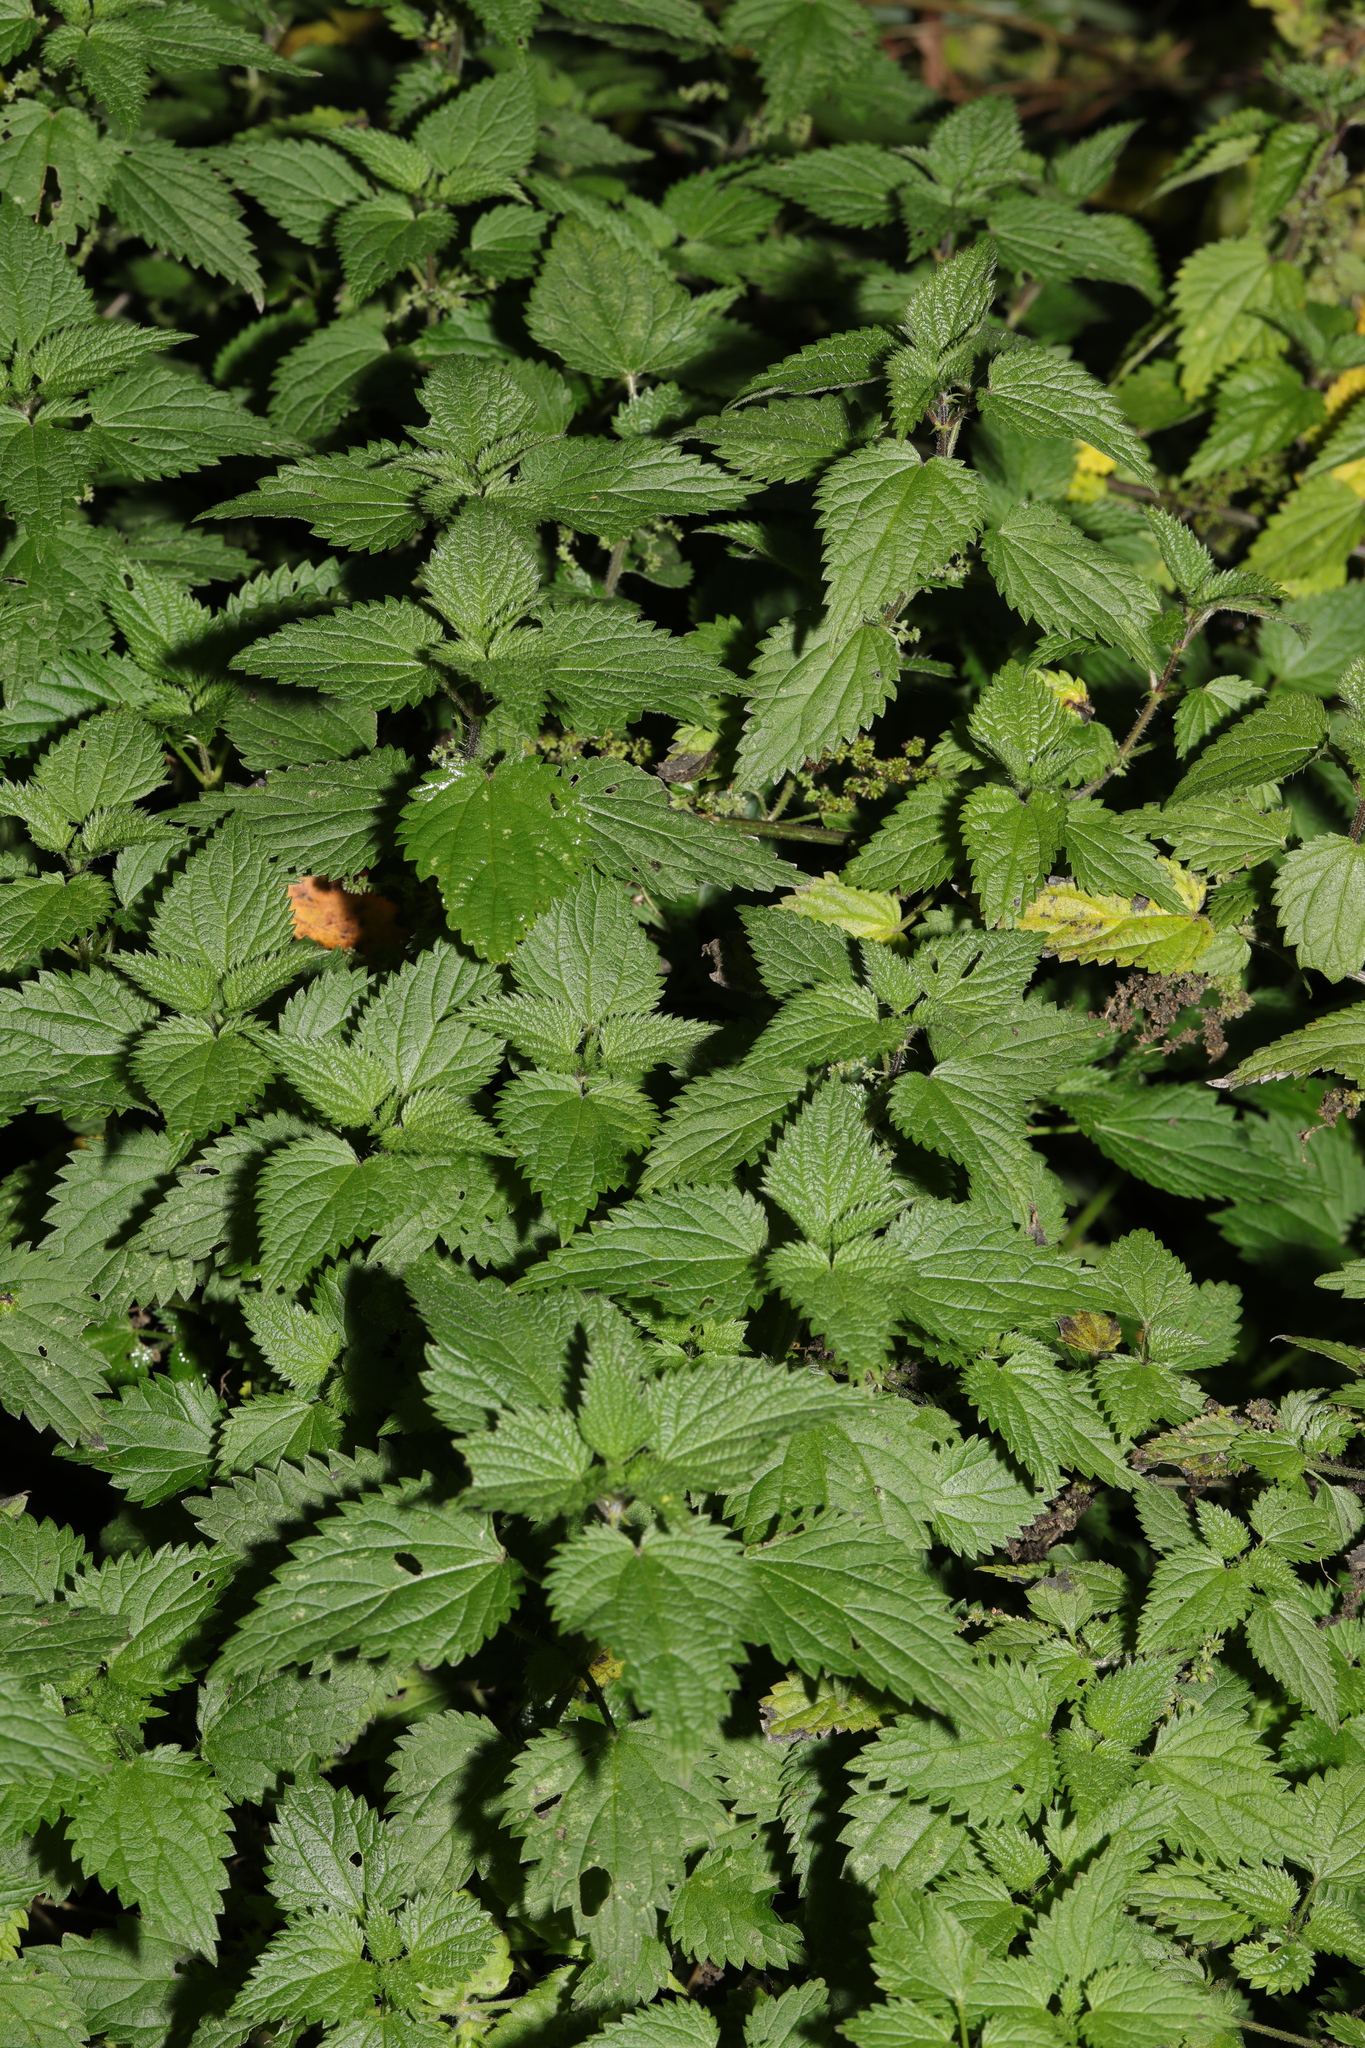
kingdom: Plantae
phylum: Tracheophyta
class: Magnoliopsida
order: Rosales
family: Urticaceae
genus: Urtica
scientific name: Urtica dioica
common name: Common nettle
